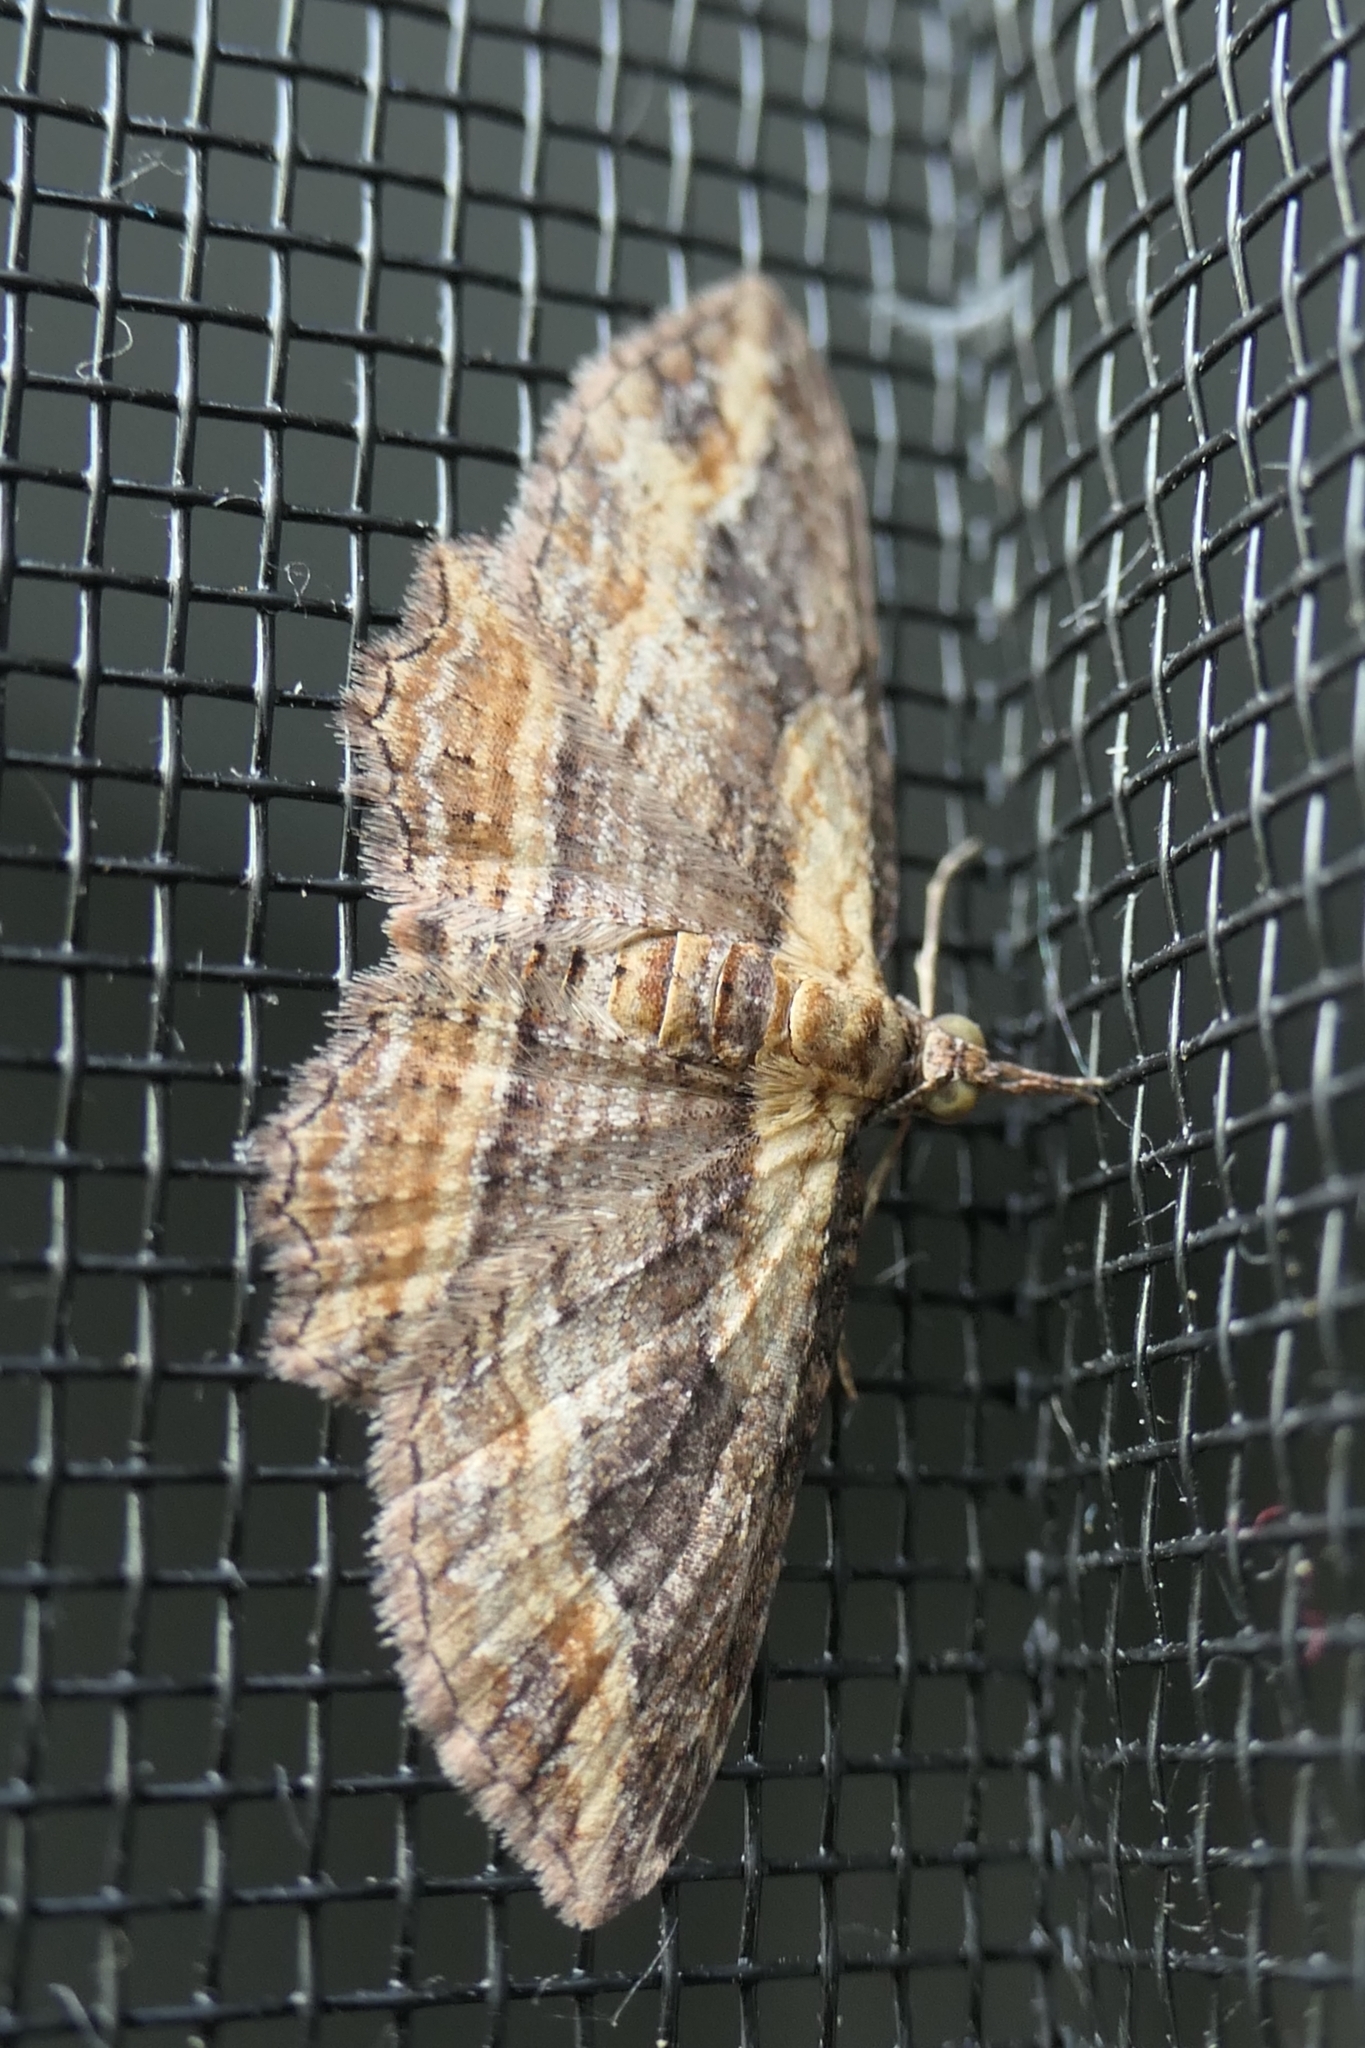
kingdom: Animalia
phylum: Arthropoda
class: Insecta
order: Lepidoptera
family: Geometridae
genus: Chloroclystis
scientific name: Chloroclystis filata
